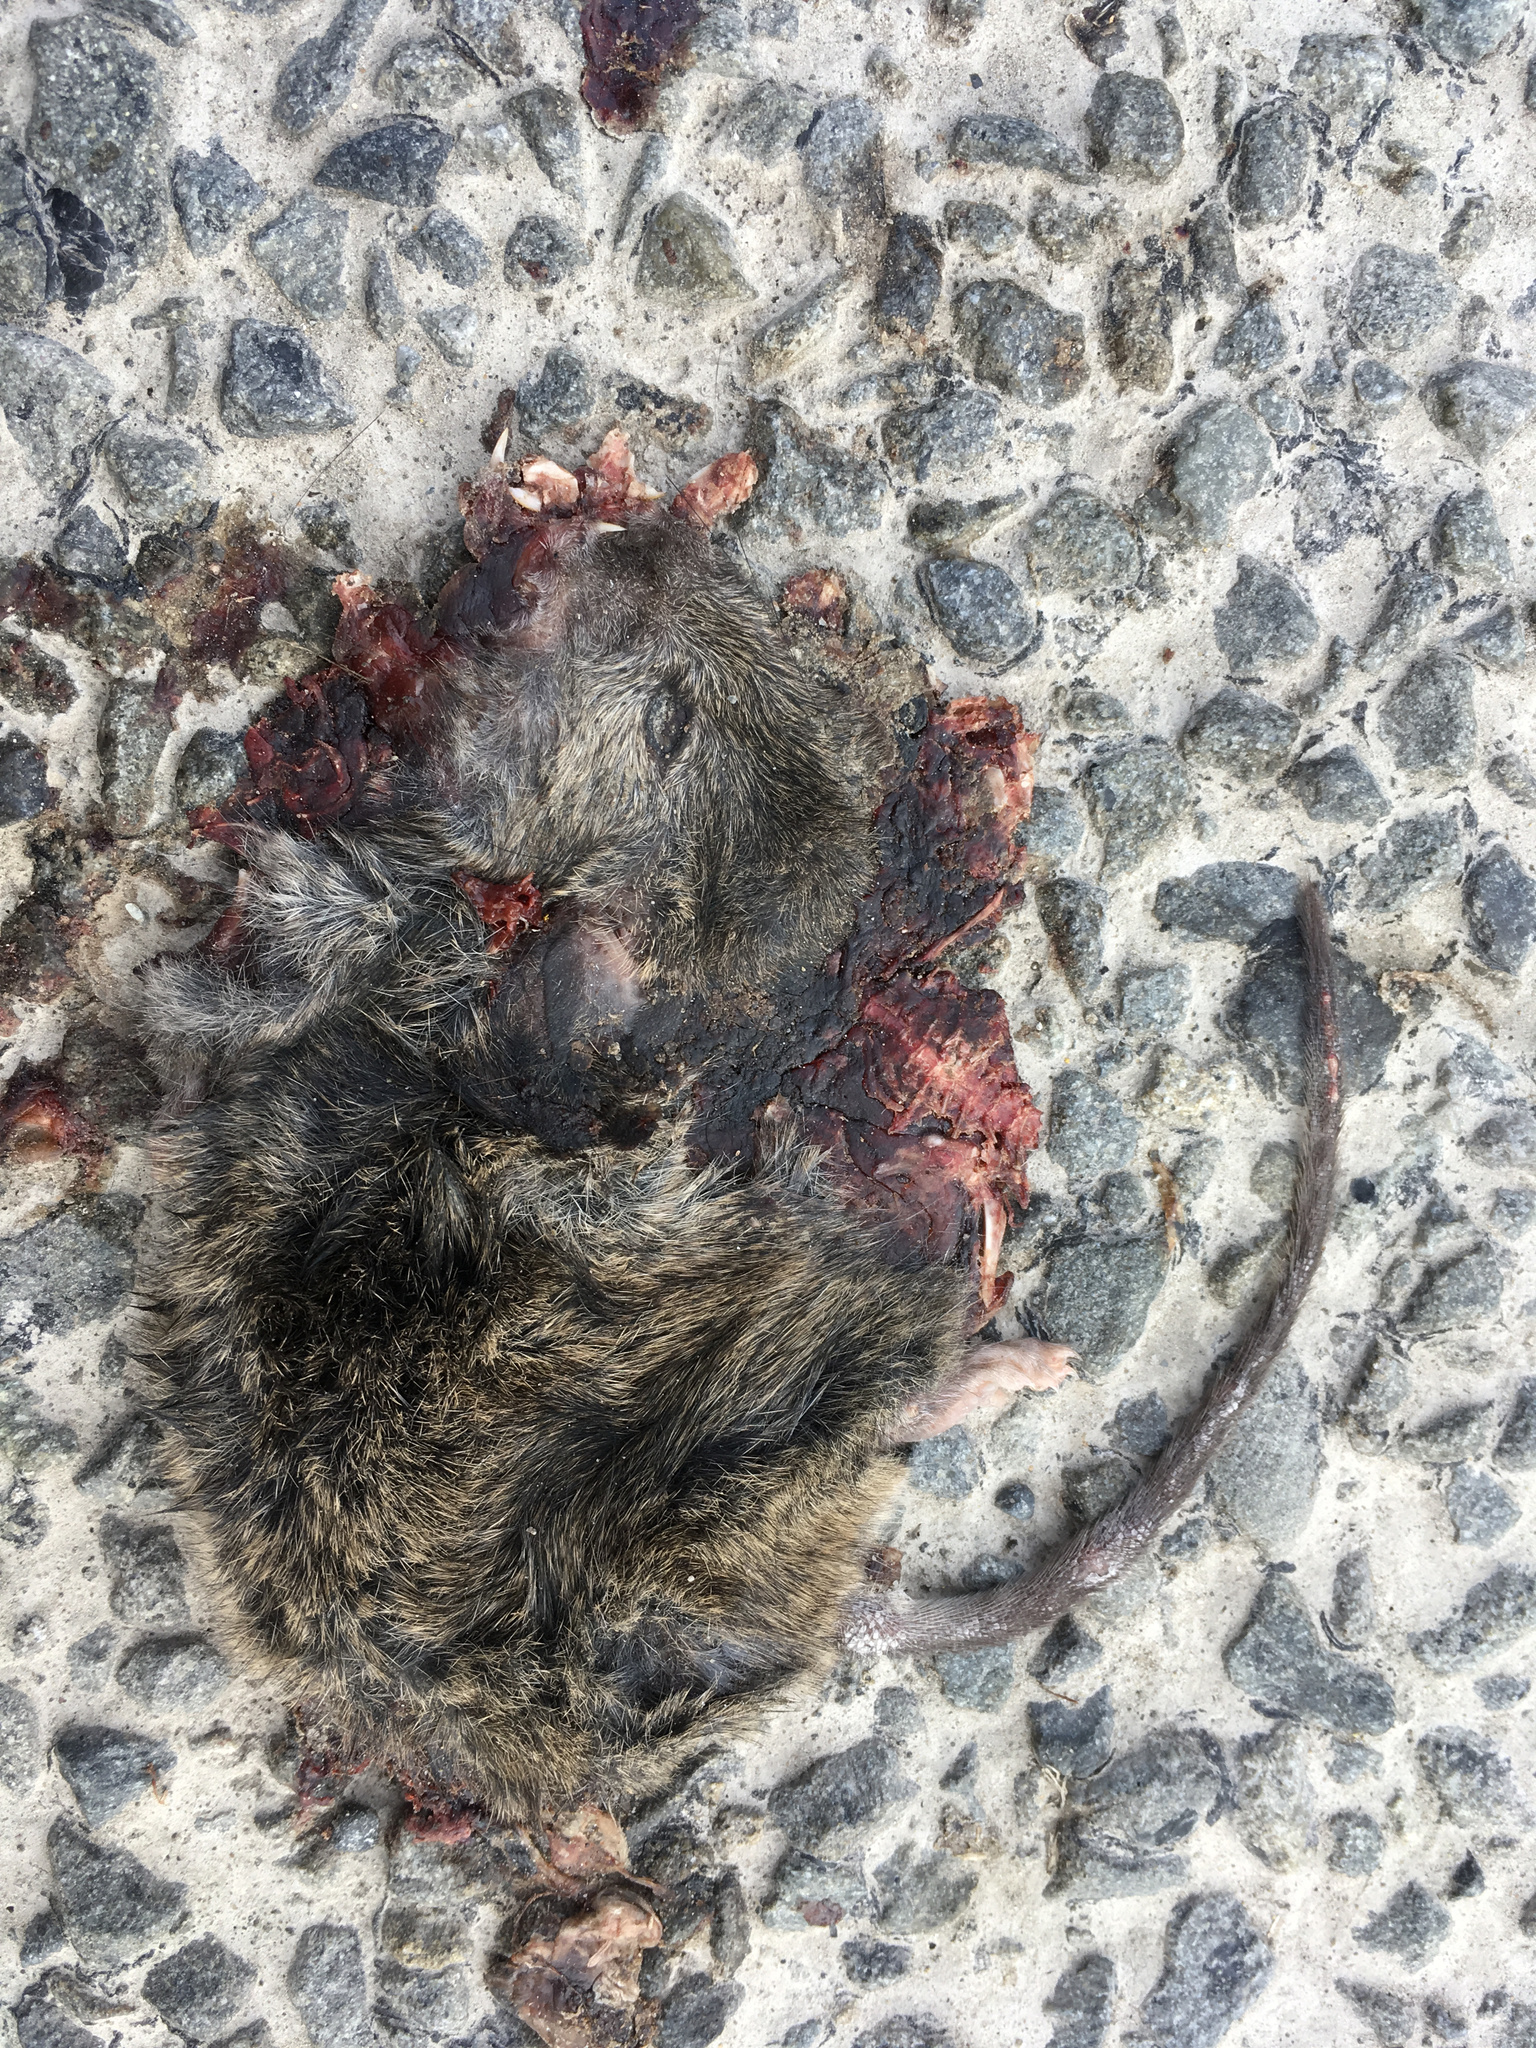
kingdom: Animalia
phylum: Chordata
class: Mammalia
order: Rodentia
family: Muridae
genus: Mus
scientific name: Mus musculus
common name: House mouse
